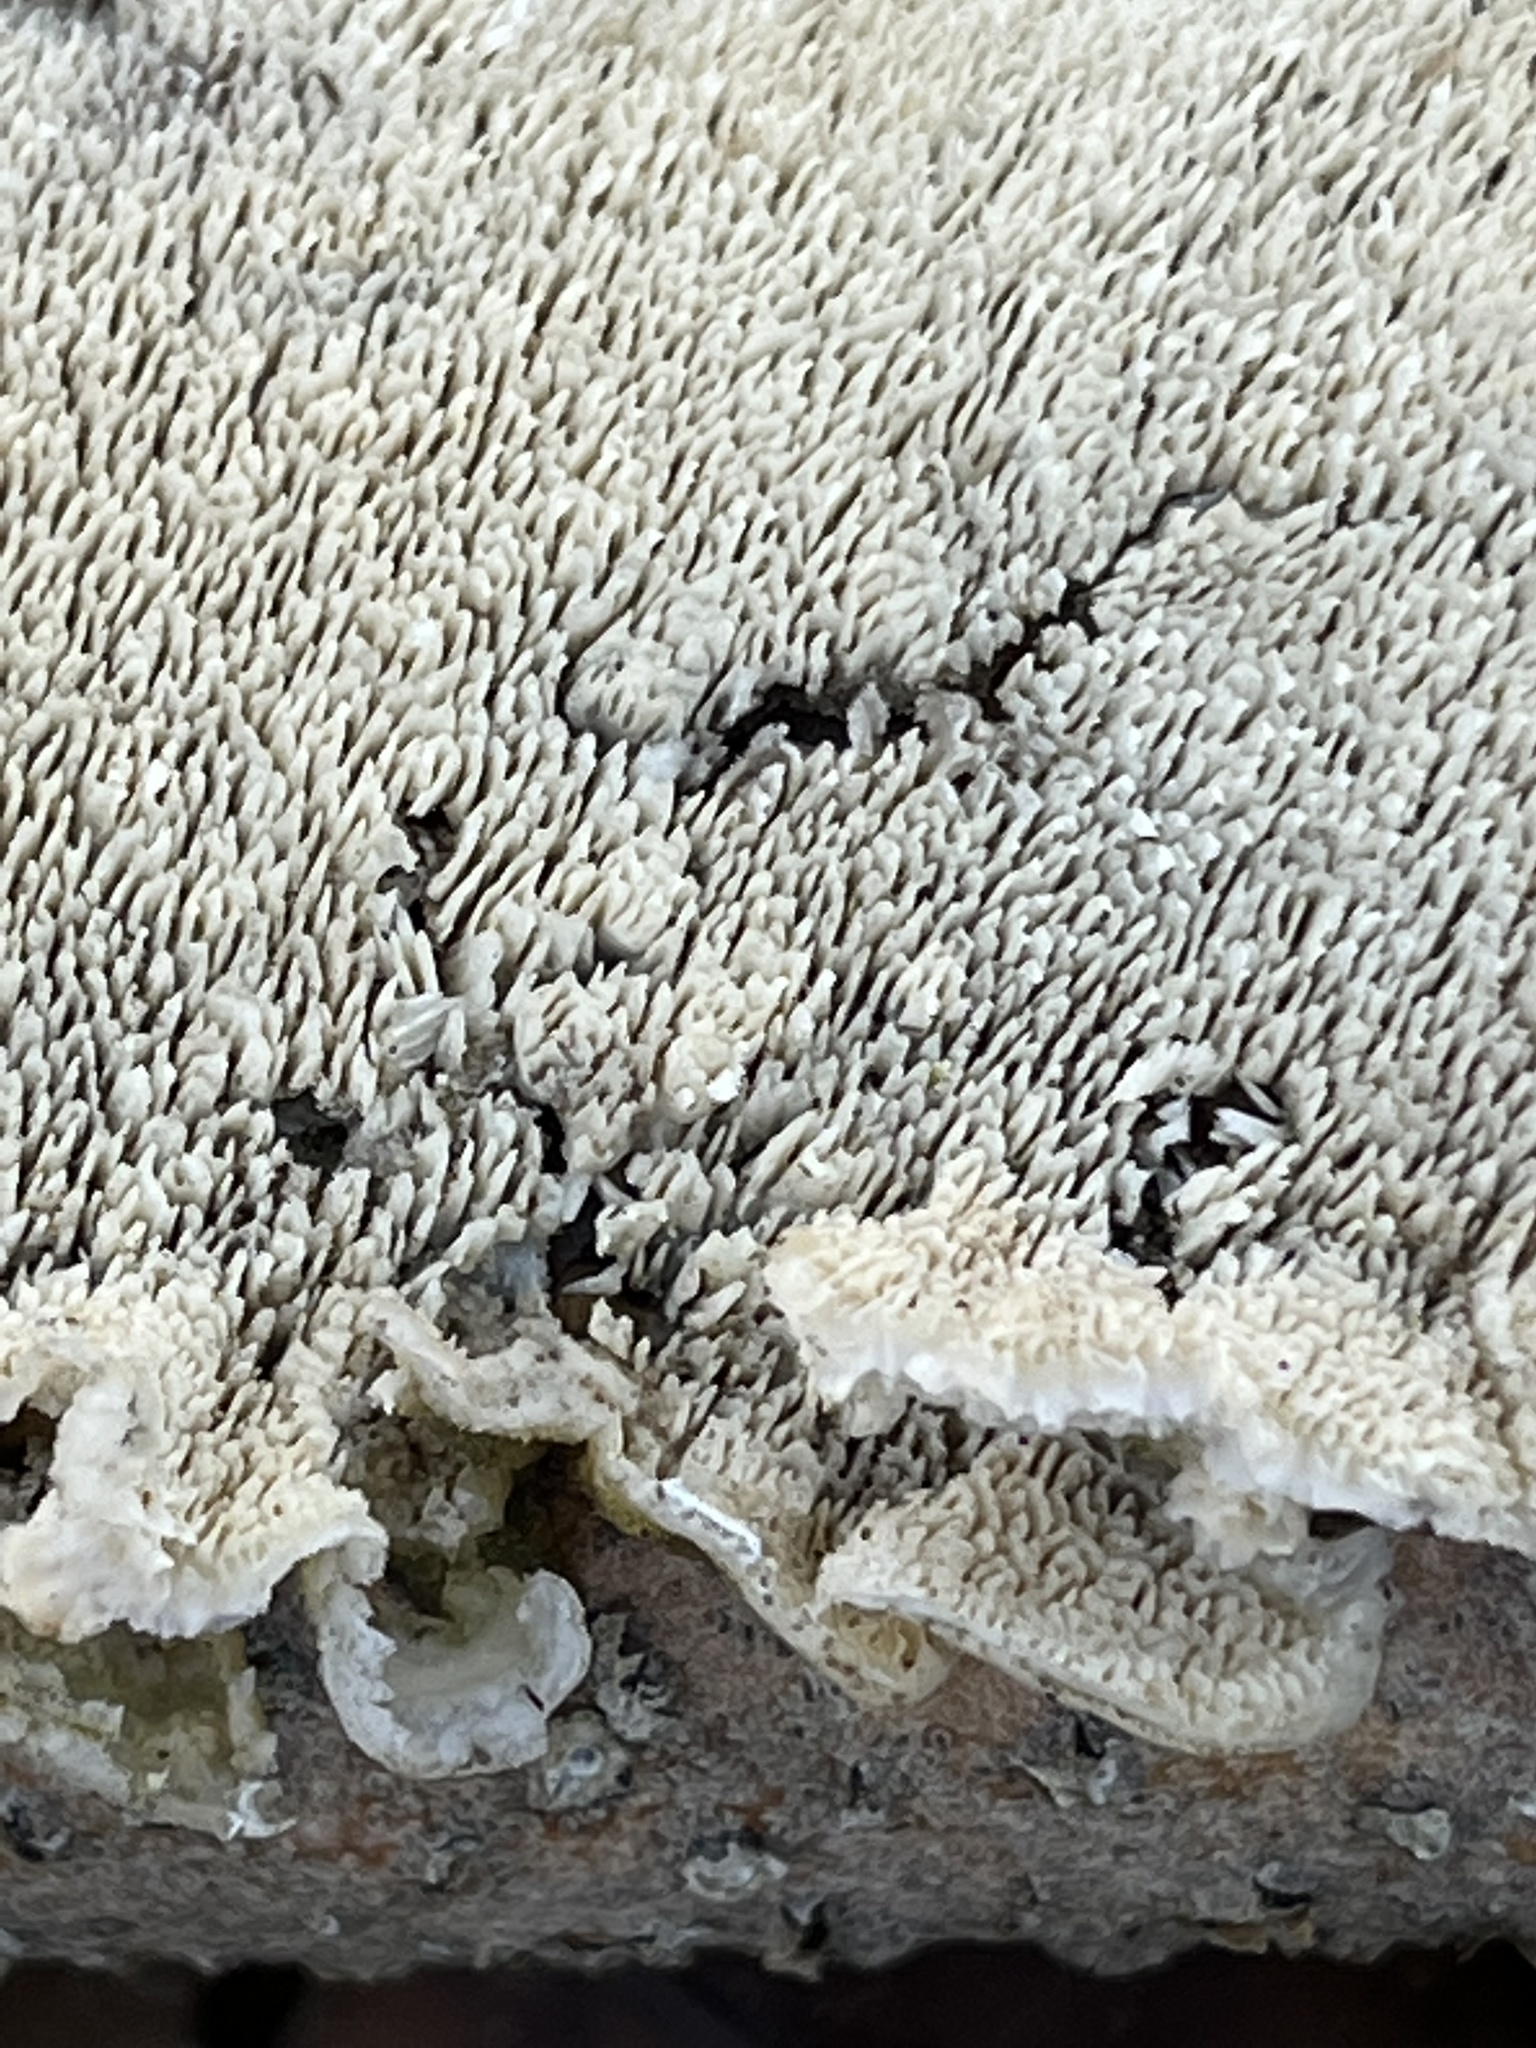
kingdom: Fungi
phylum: Basidiomycota
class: Agaricomycetes
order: Polyporales
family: Irpicaceae
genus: Irpex
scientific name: Irpex lacteus
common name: Milk-white toothed polypore
